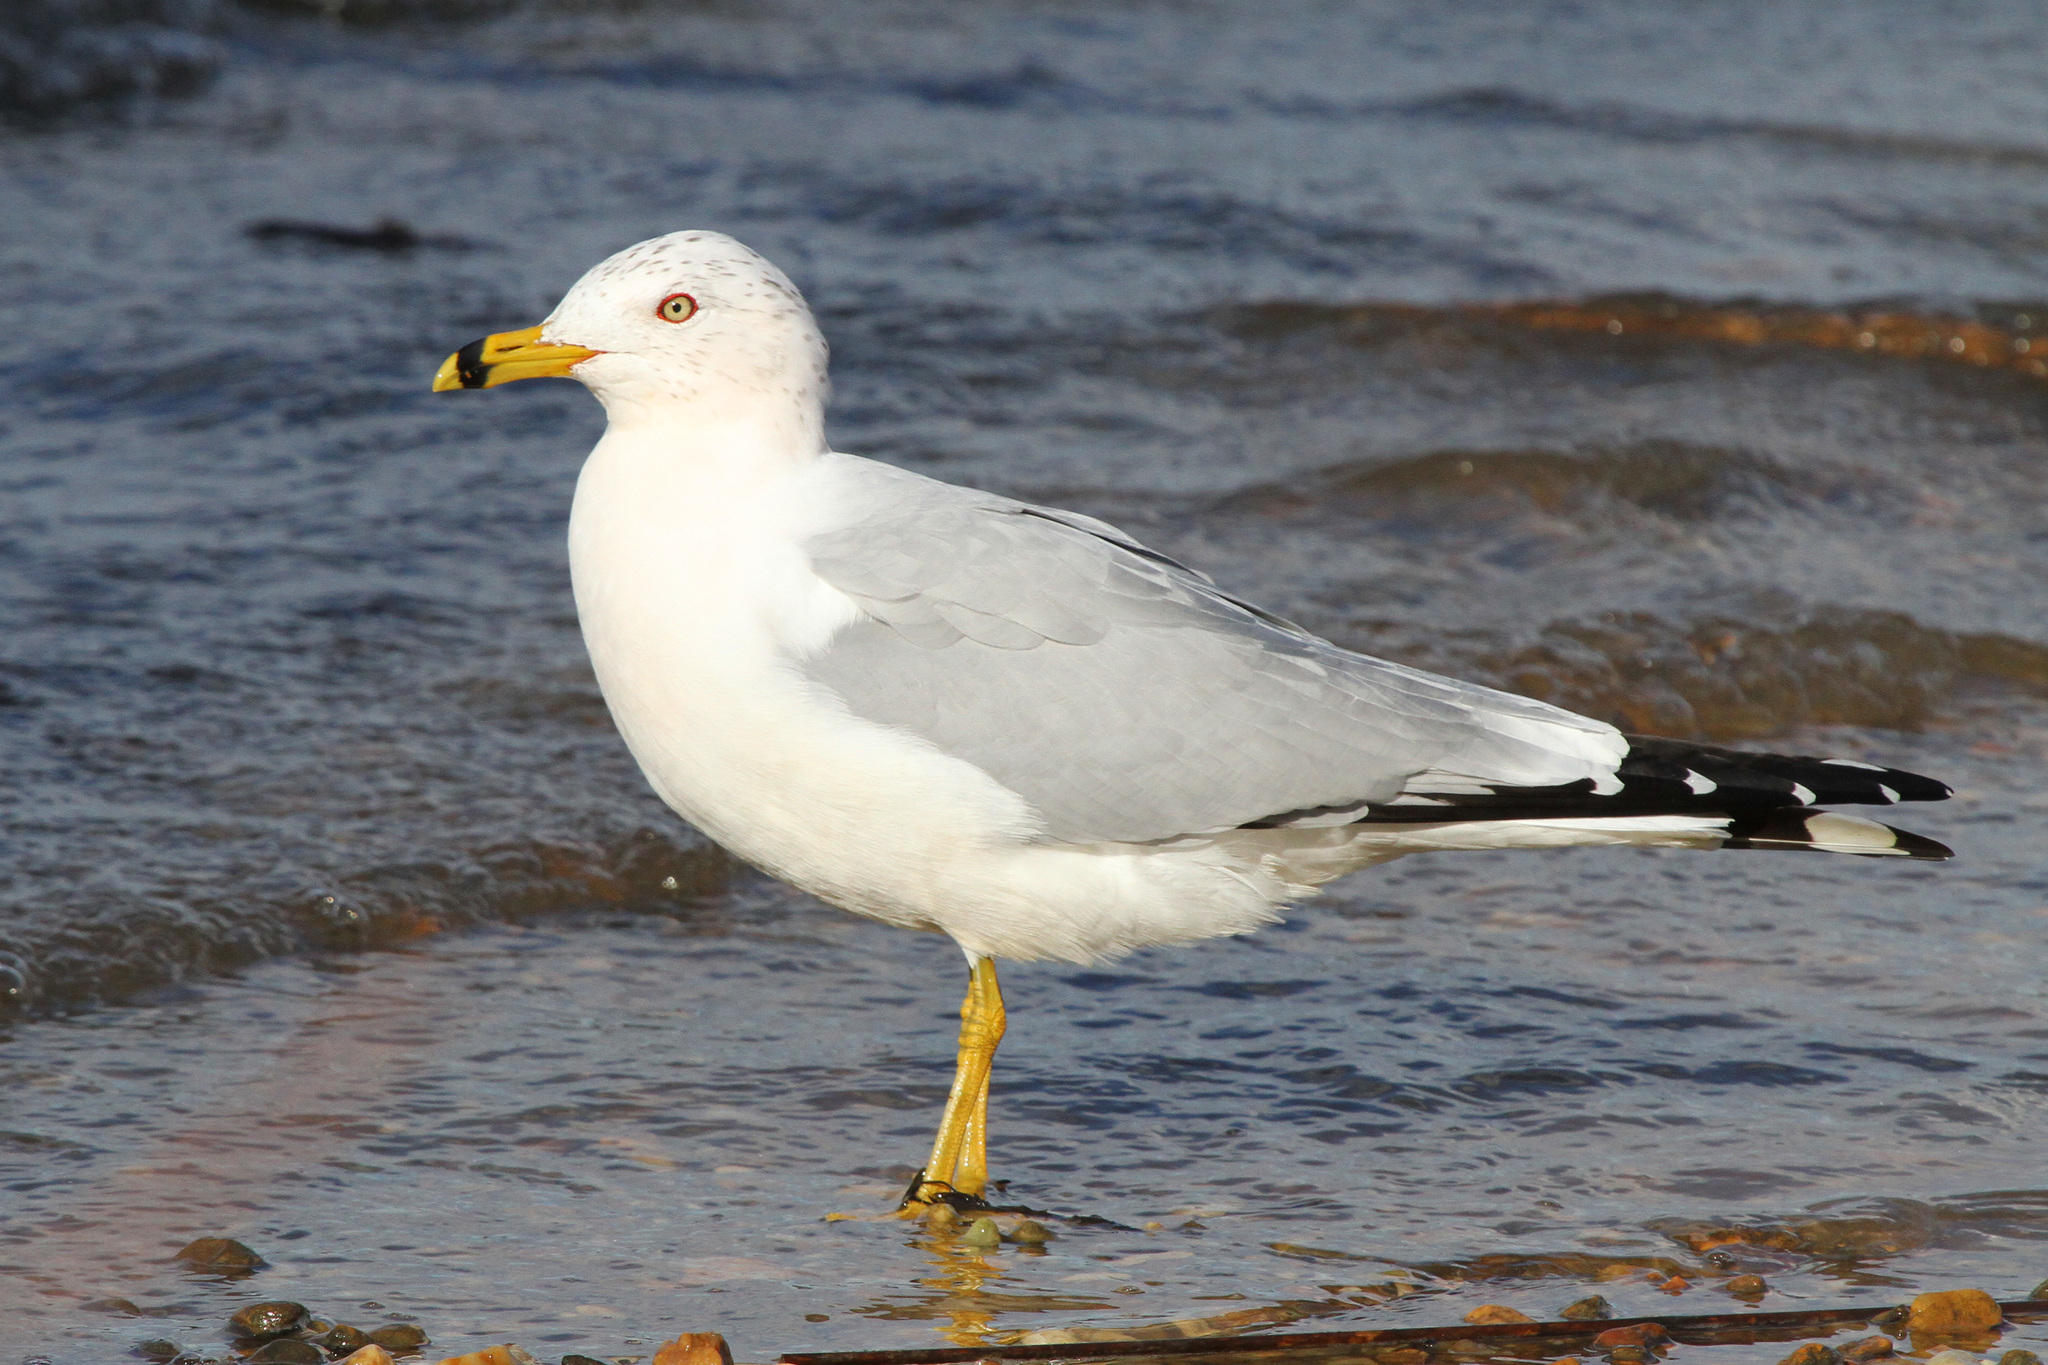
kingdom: Animalia
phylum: Chordata
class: Aves
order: Charadriiformes
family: Laridae
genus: Larus
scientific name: Larus delawarensis
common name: Ring-billed gull
